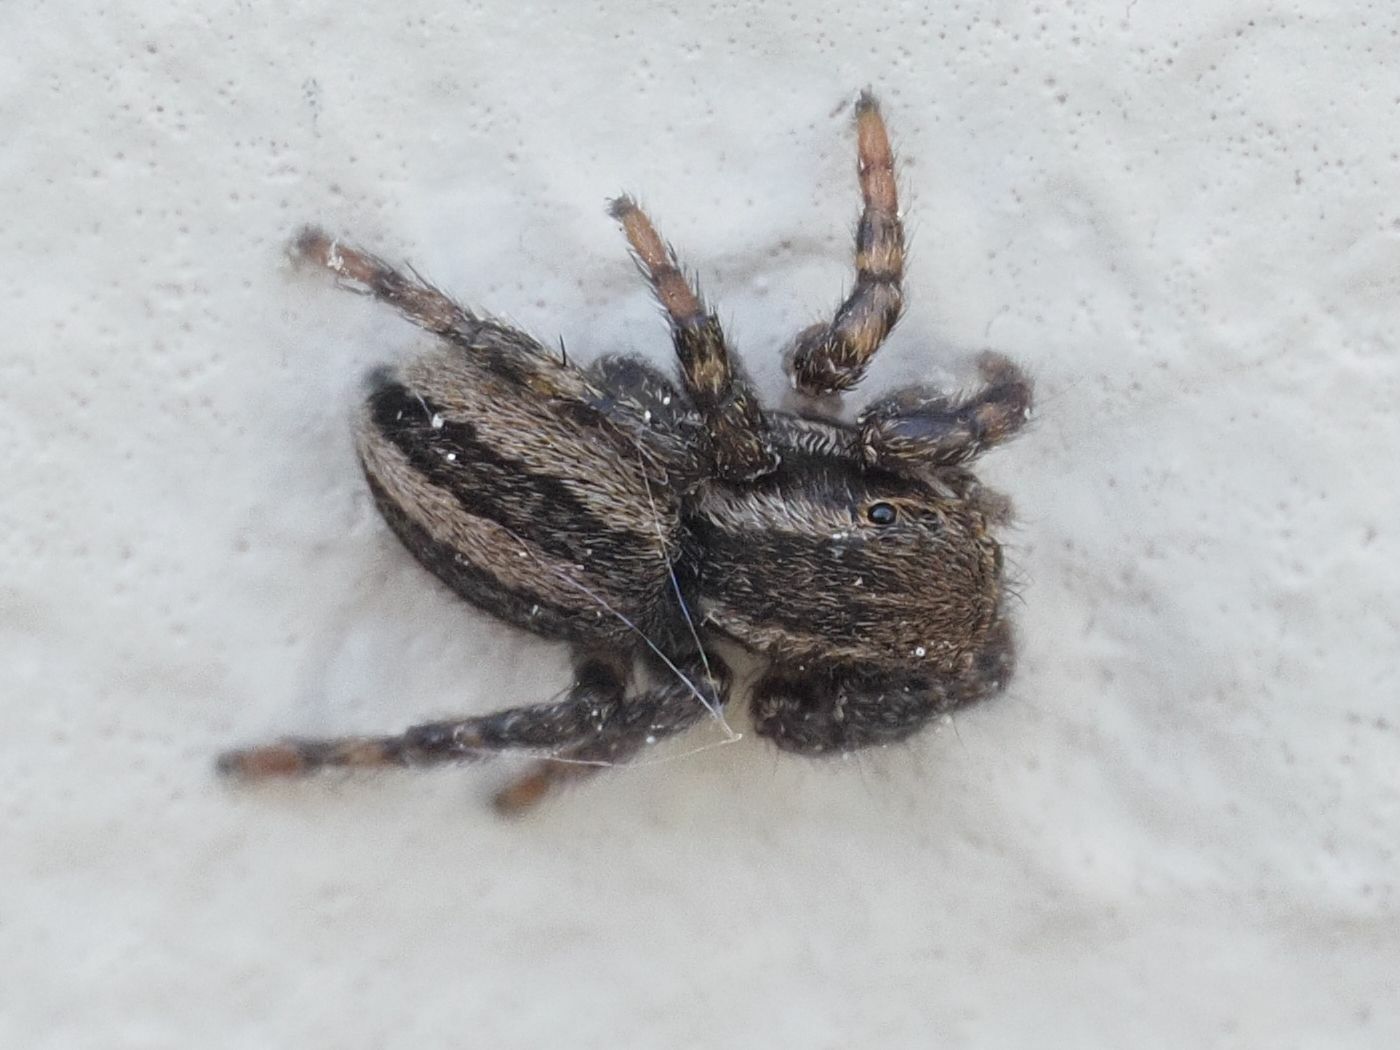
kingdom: Animalia
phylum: Arthropoda
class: Arachnida
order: Araneae
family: Salticidae
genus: Phlegra
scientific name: Phlegra fasciata
